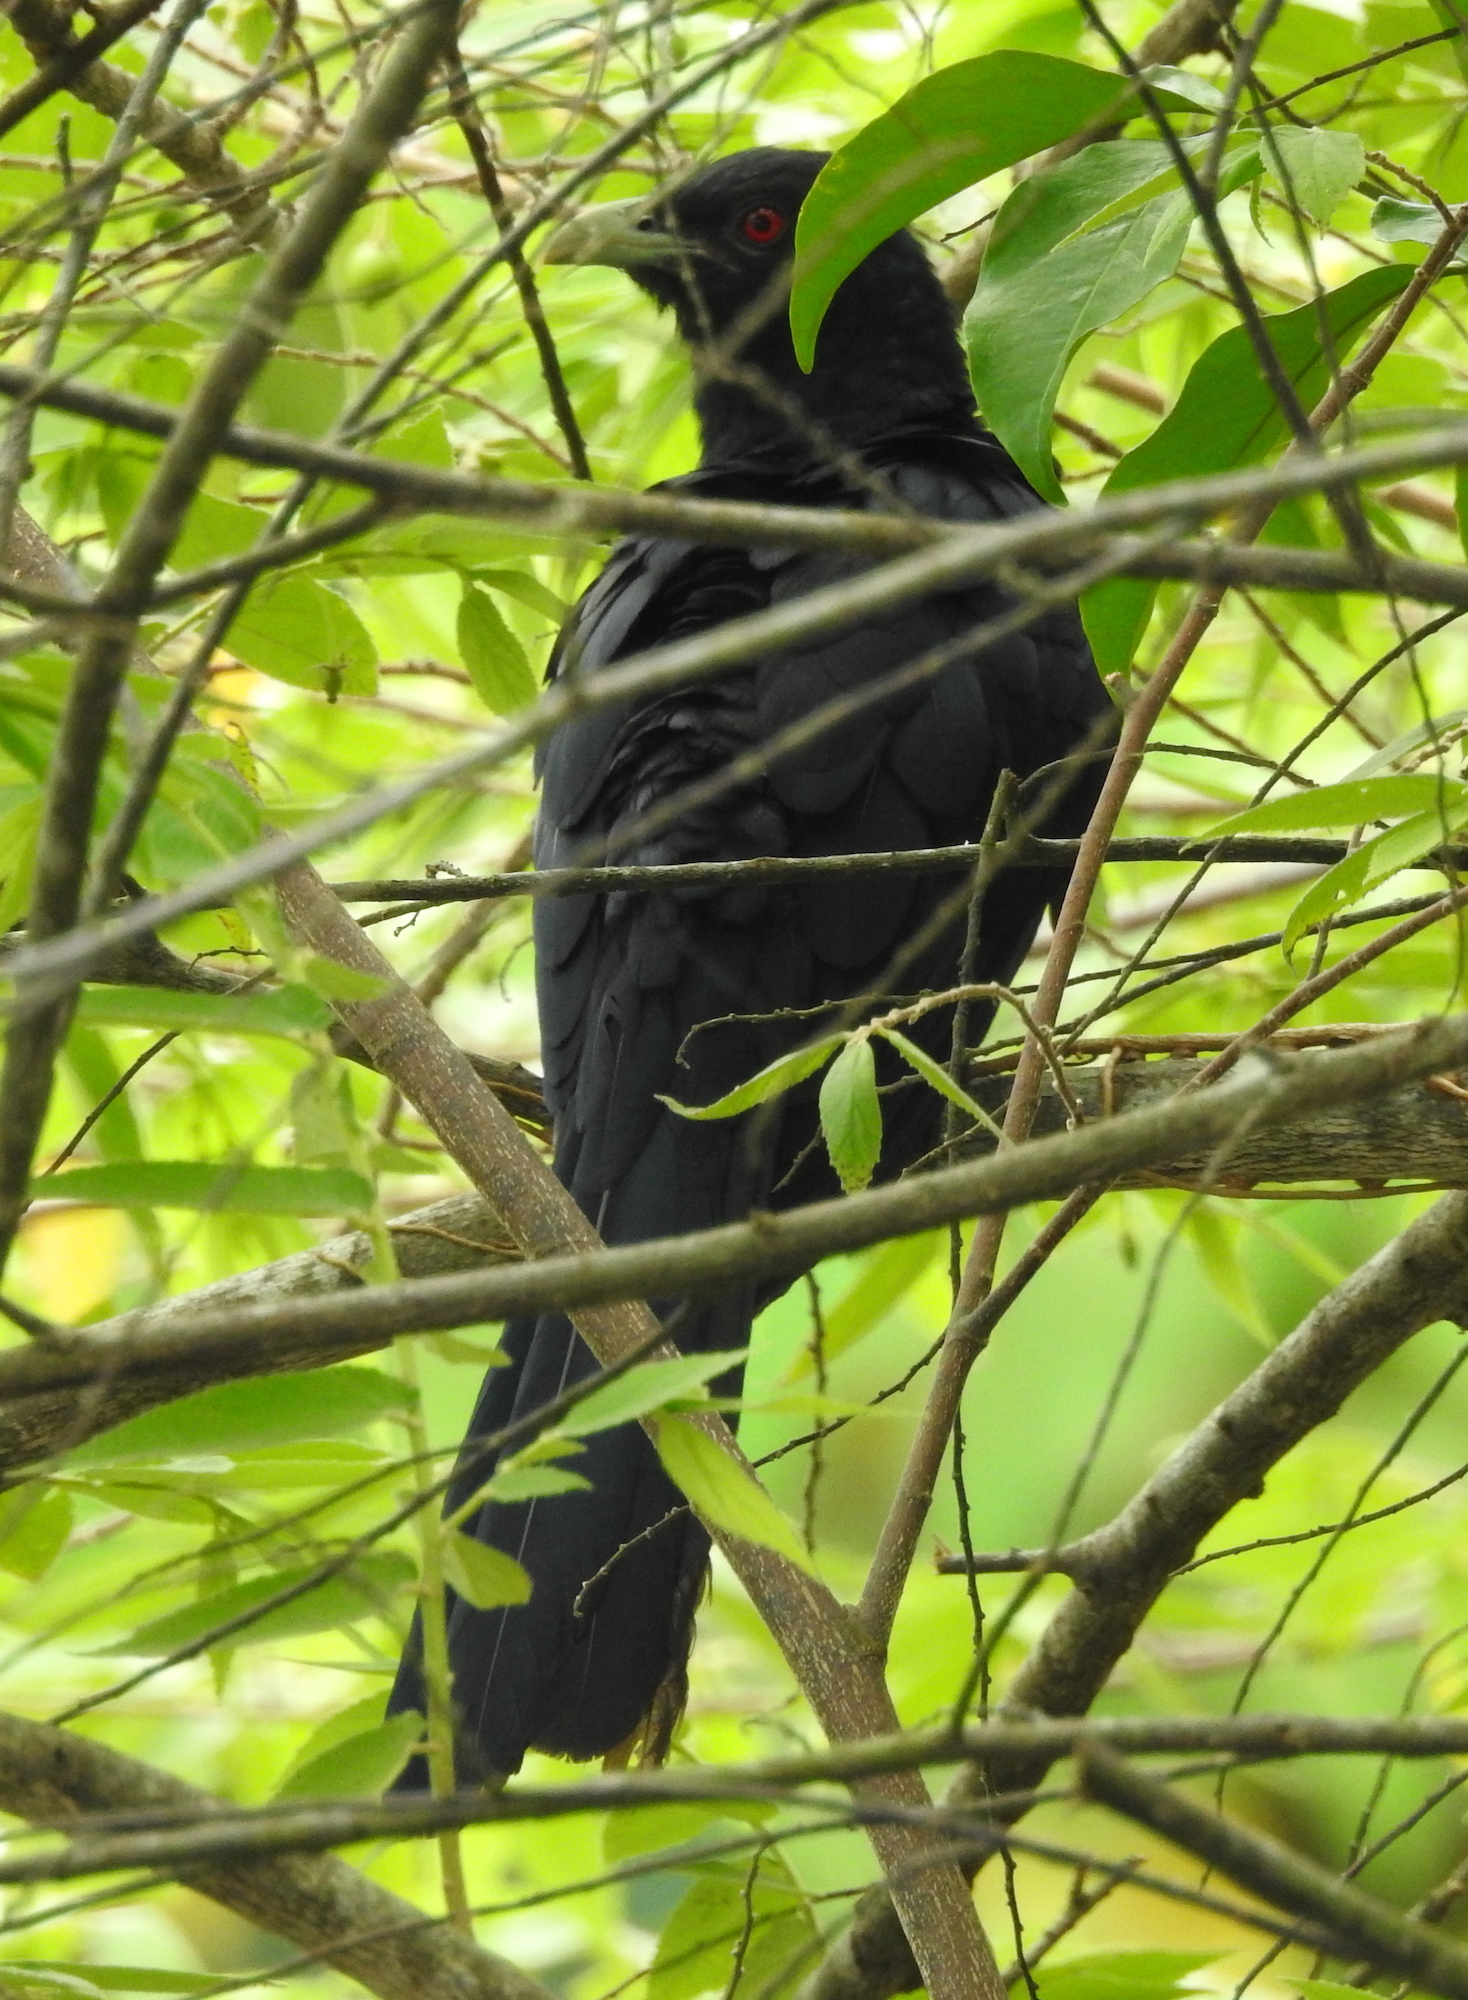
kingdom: Animalia
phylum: Chordata
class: Aves
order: Cuculiformes
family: Cuculidae
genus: Eudynamys
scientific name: Eudynamys scolopaceus
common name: Asian koel
